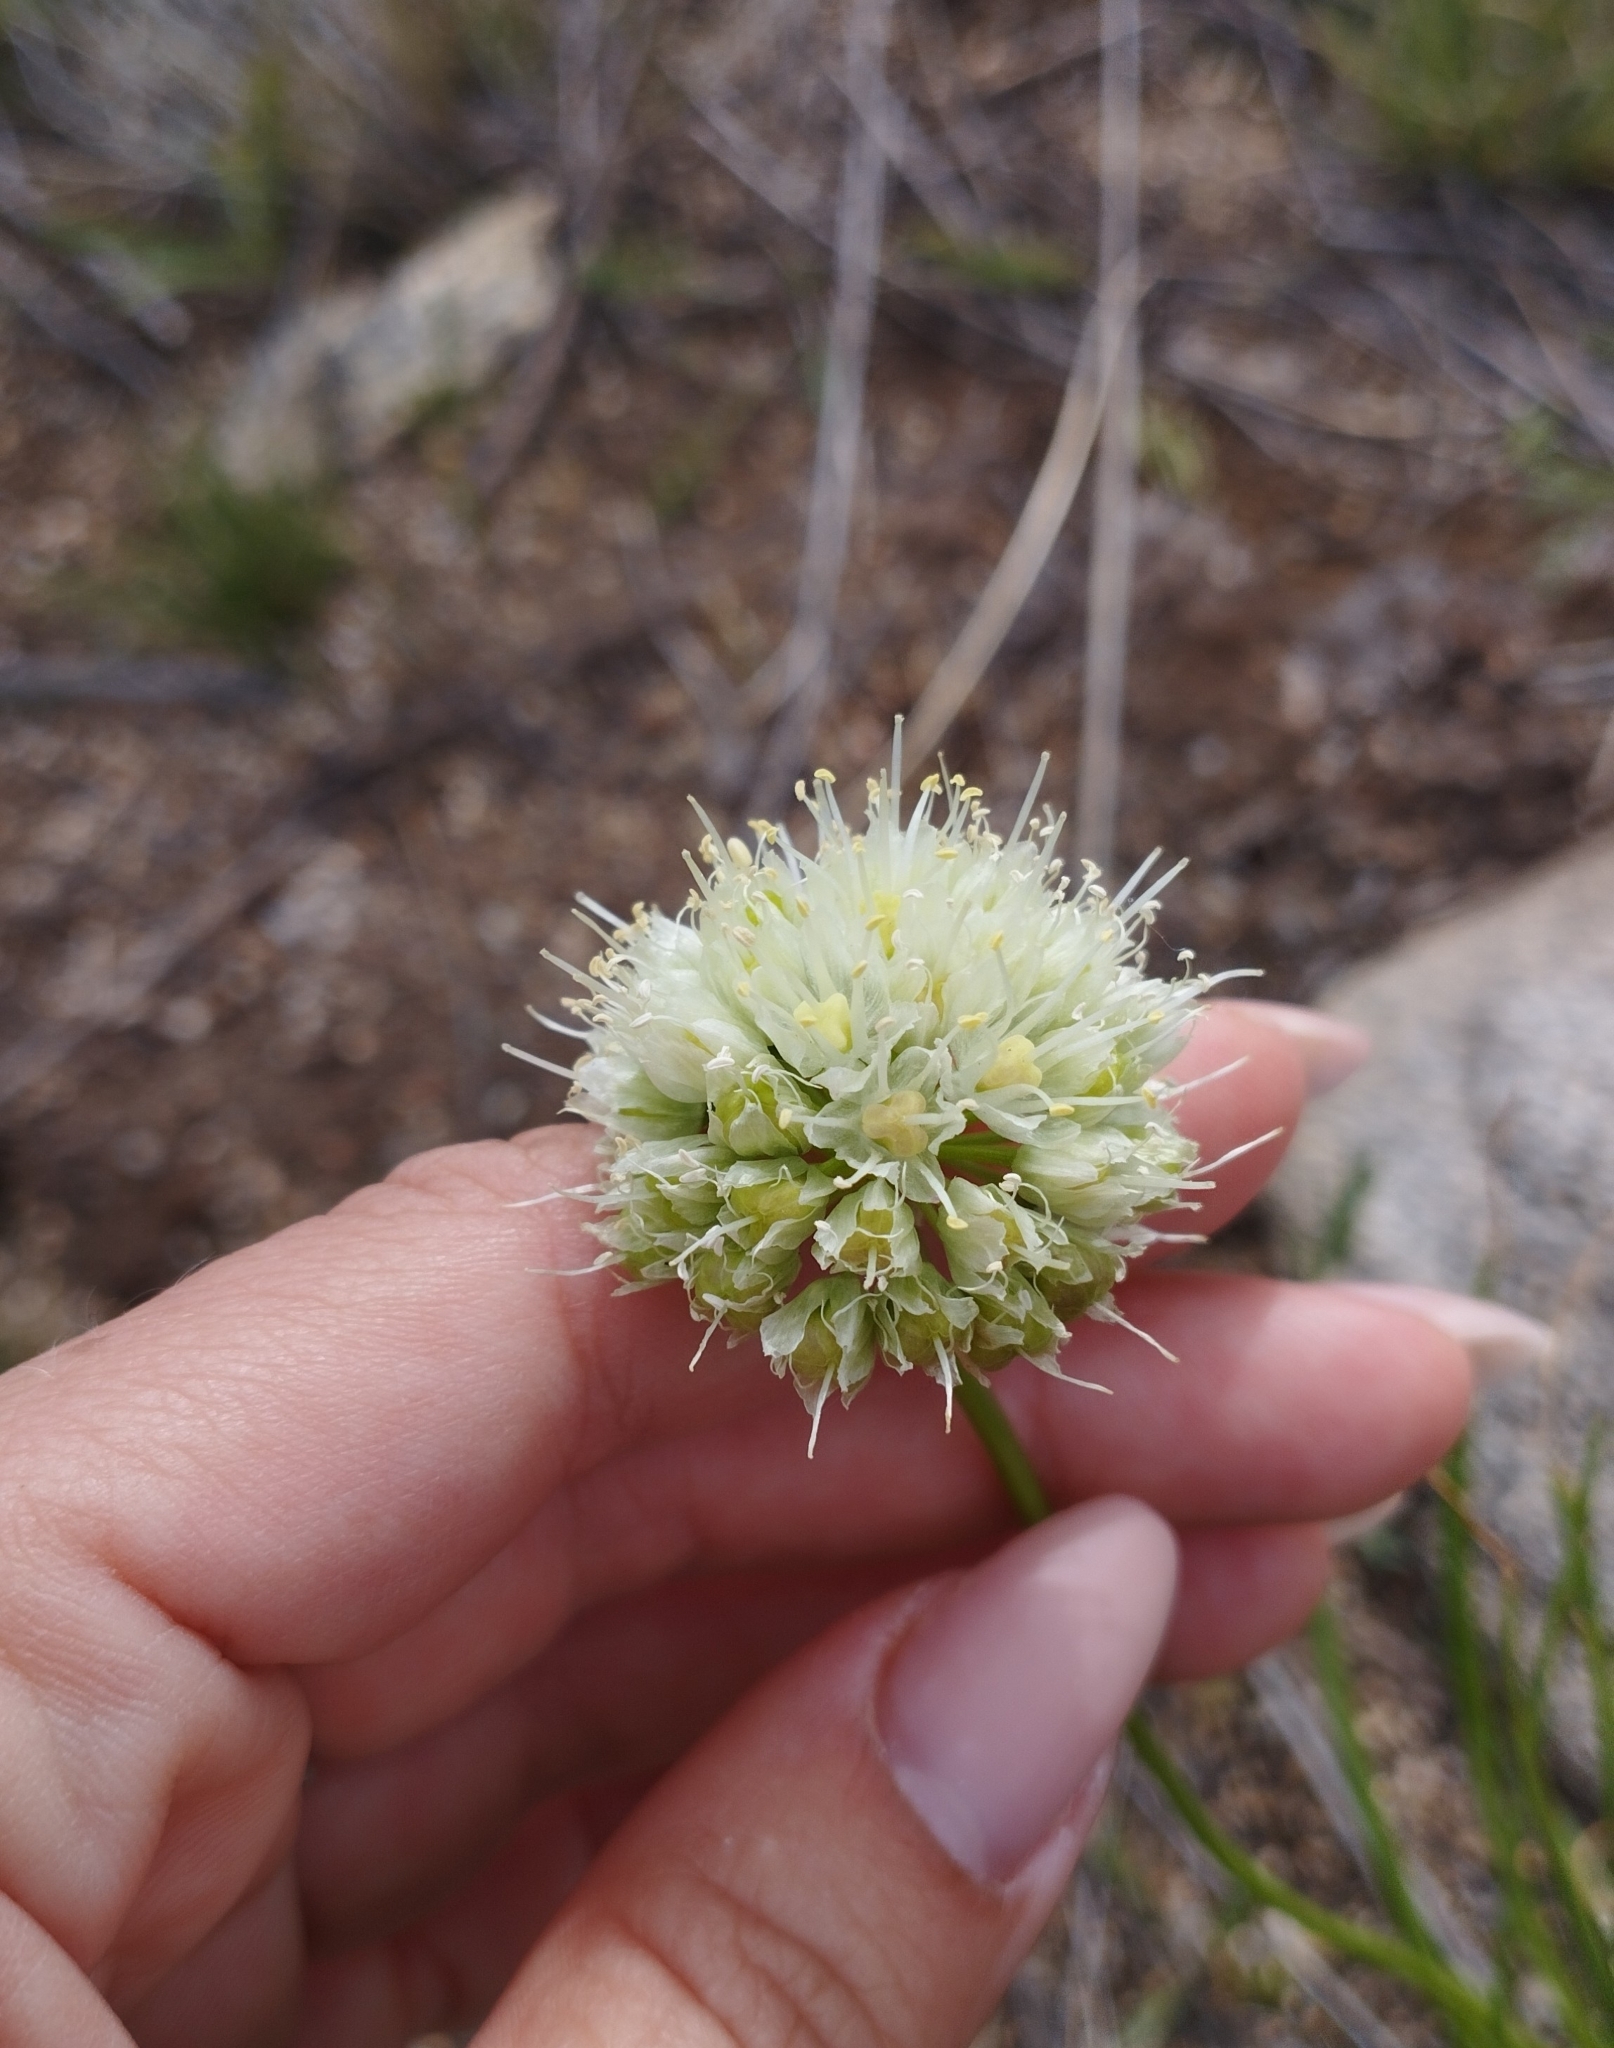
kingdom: Plantae
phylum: Tracheophyta
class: Liliopsida
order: Asparagales
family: Amaryllidaceae
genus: Allium
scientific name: Allium stellerianum
